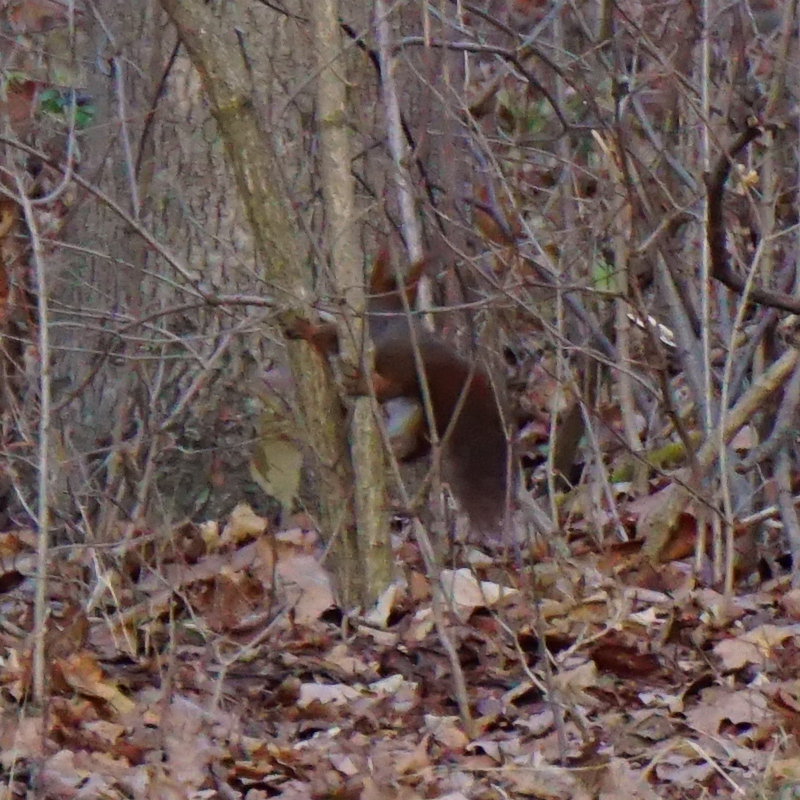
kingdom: Animalia
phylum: Chordata
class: Mammalia
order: Rodentia
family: Sciuridae
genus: Sciurus
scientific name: Sciurus vulgaris
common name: Eurasian red squirrel
